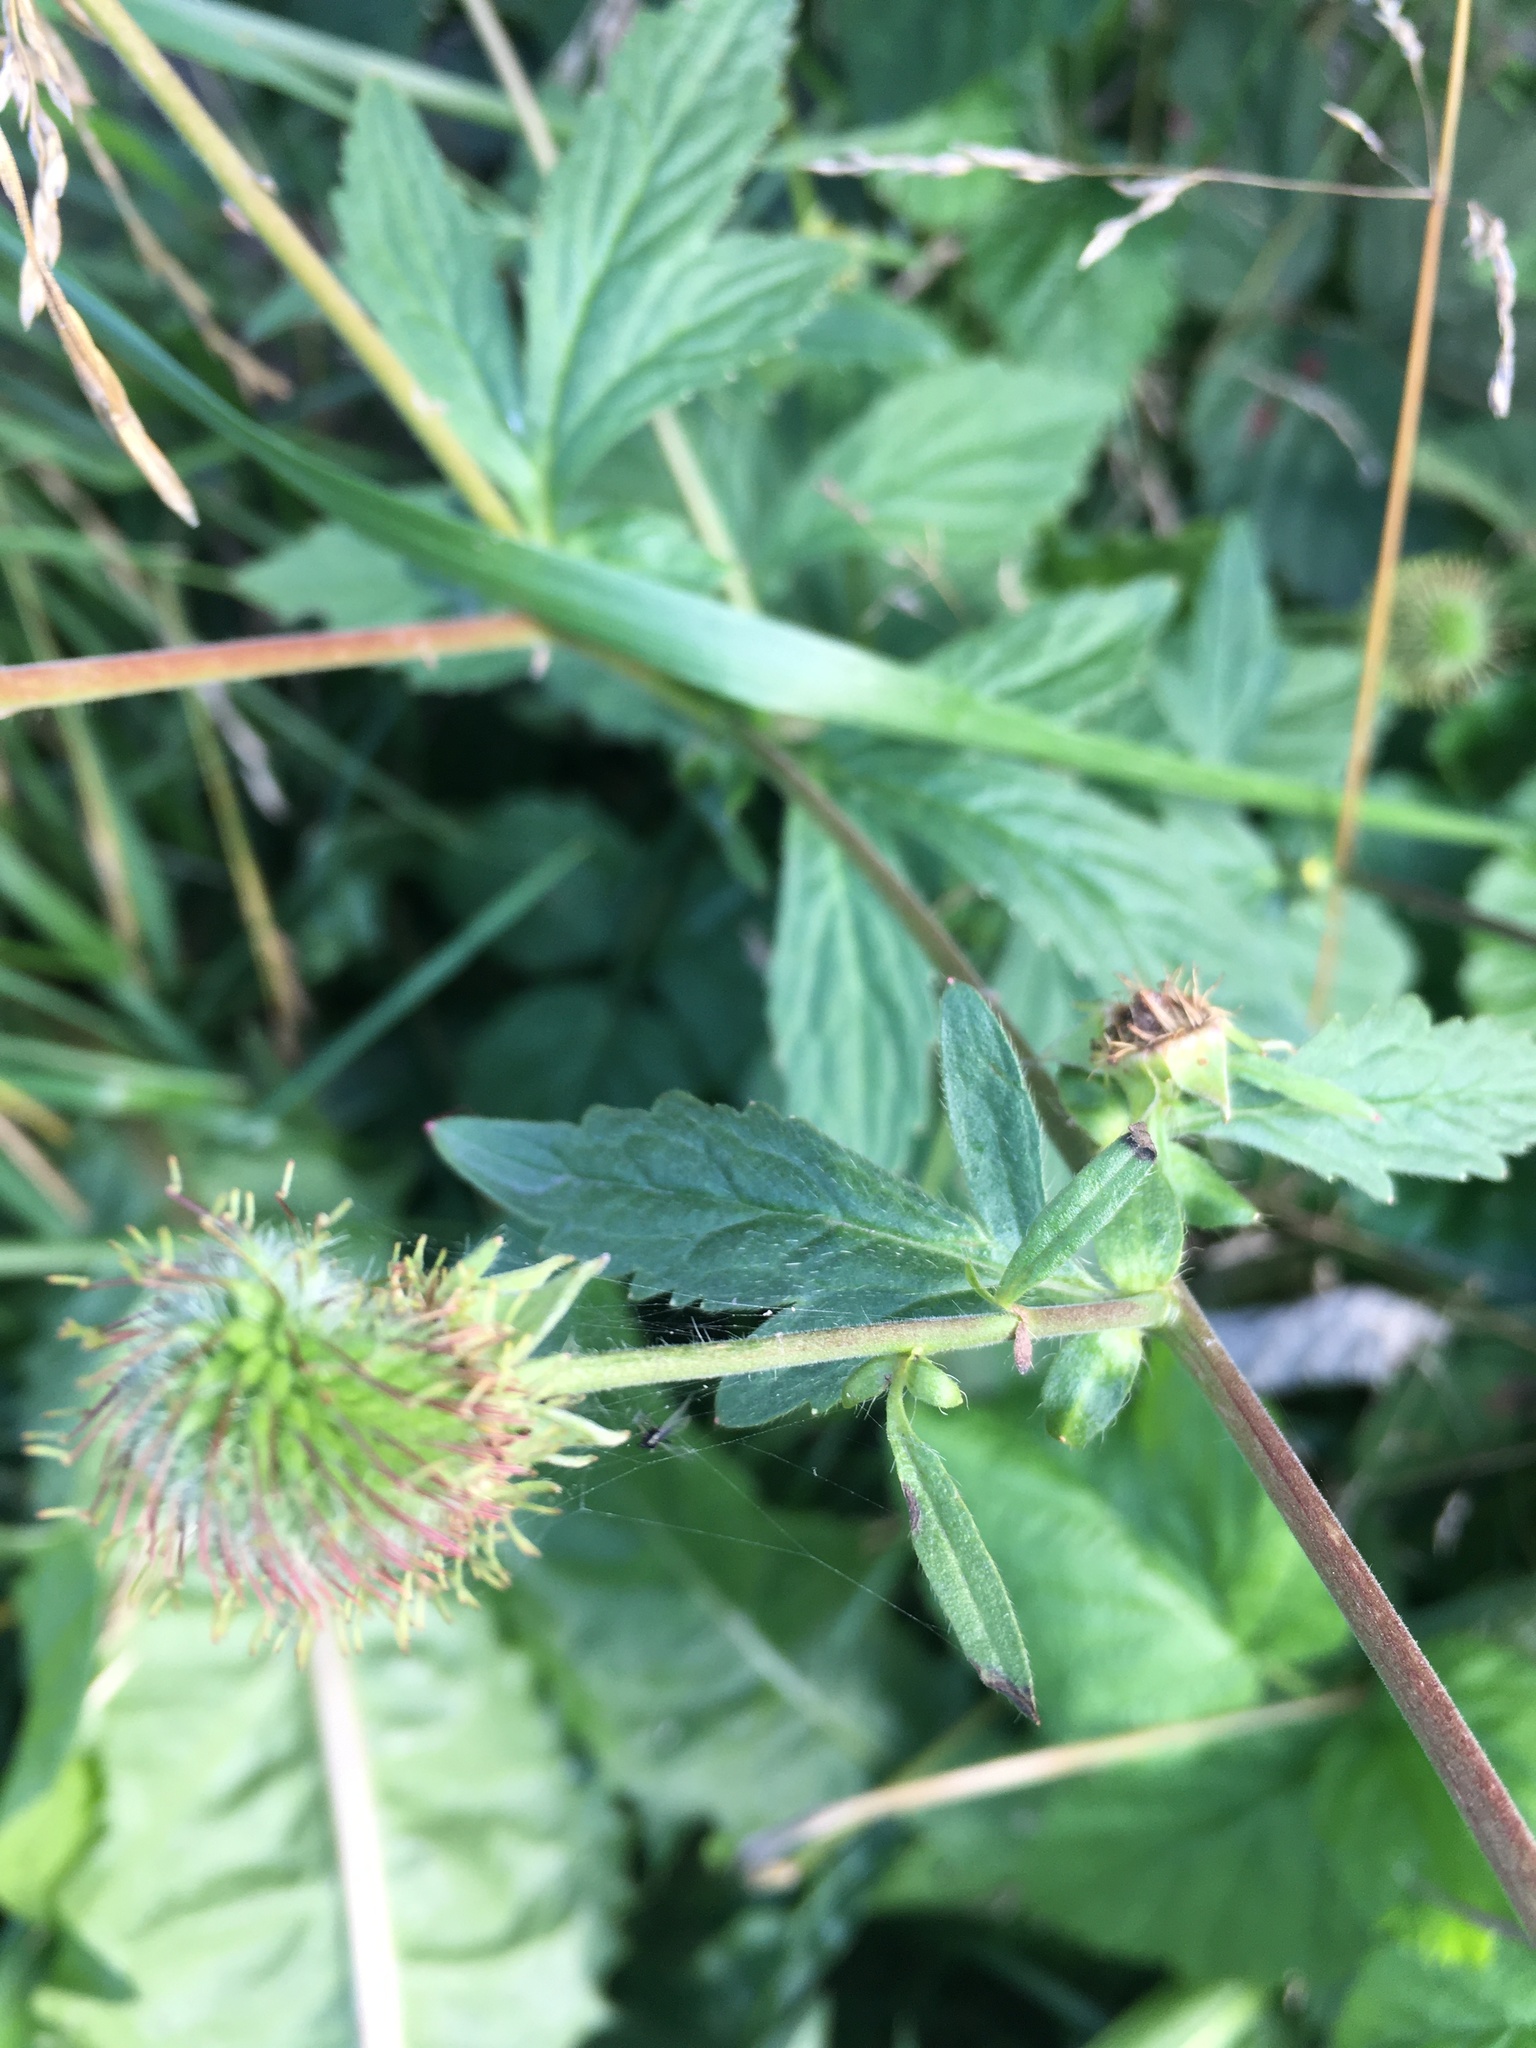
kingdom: Plantae
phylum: Tracheophyta
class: Magnoliopsida
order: Rosales
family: Rosaceae
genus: Geum
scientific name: Geum aleppicum
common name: Yellow avens
